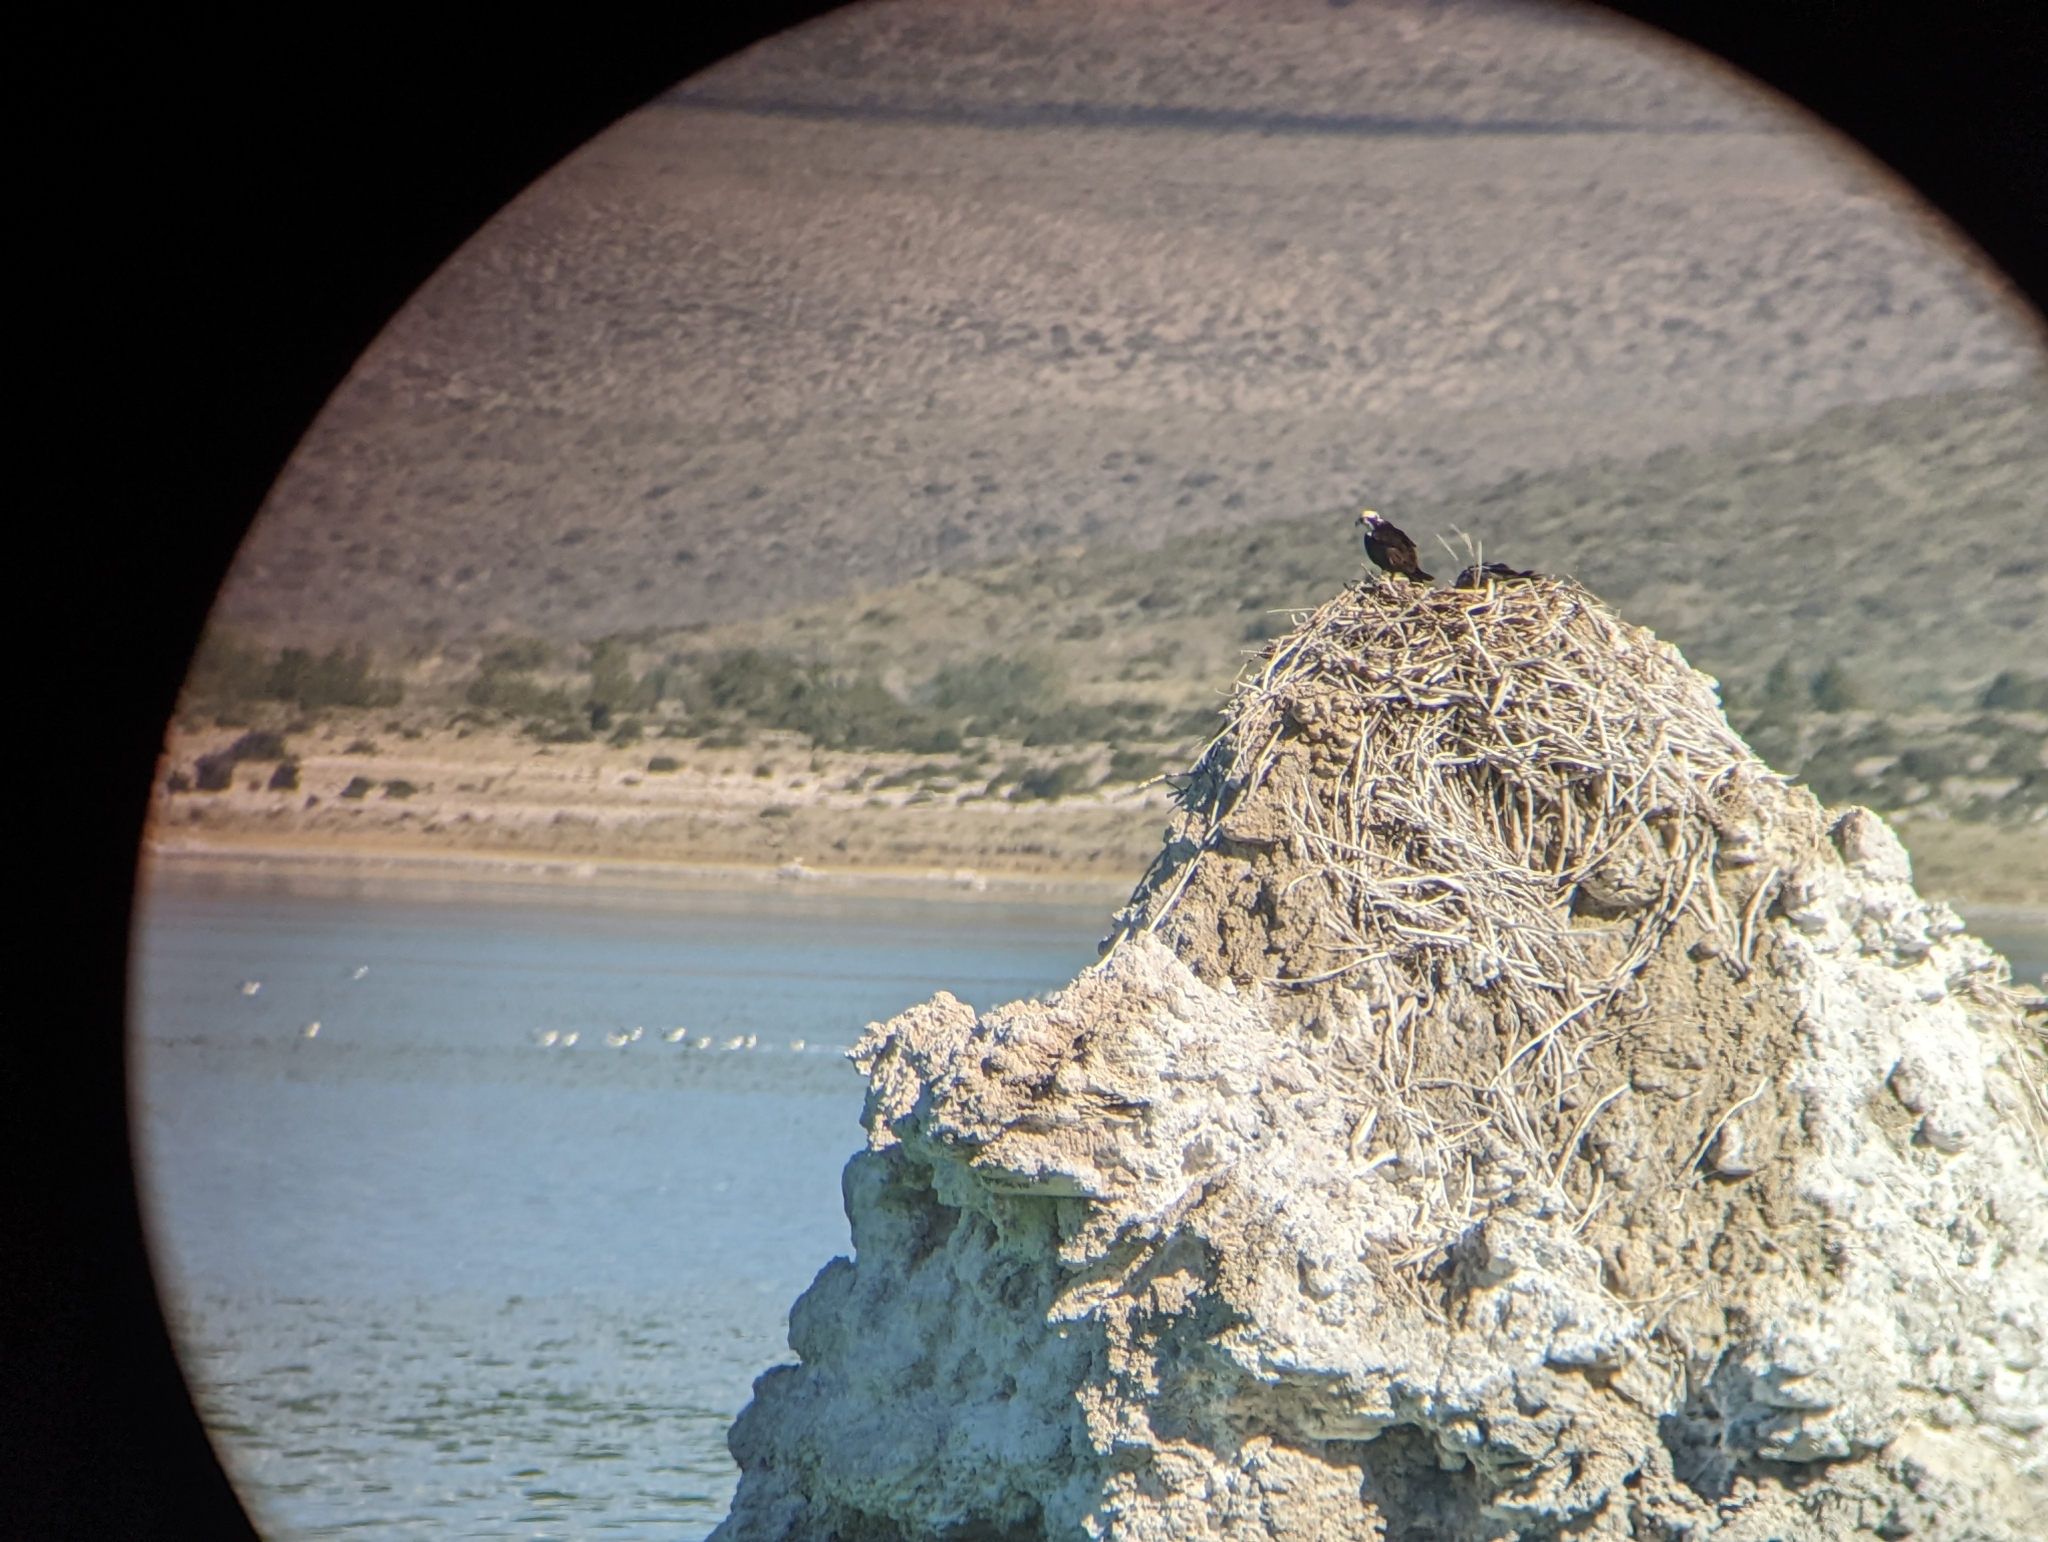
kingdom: Animalia
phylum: Chordata
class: Aves
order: Accipitriformes
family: Pandionidae
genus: Pandion
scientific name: Pandion haliaetus
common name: Osprey
